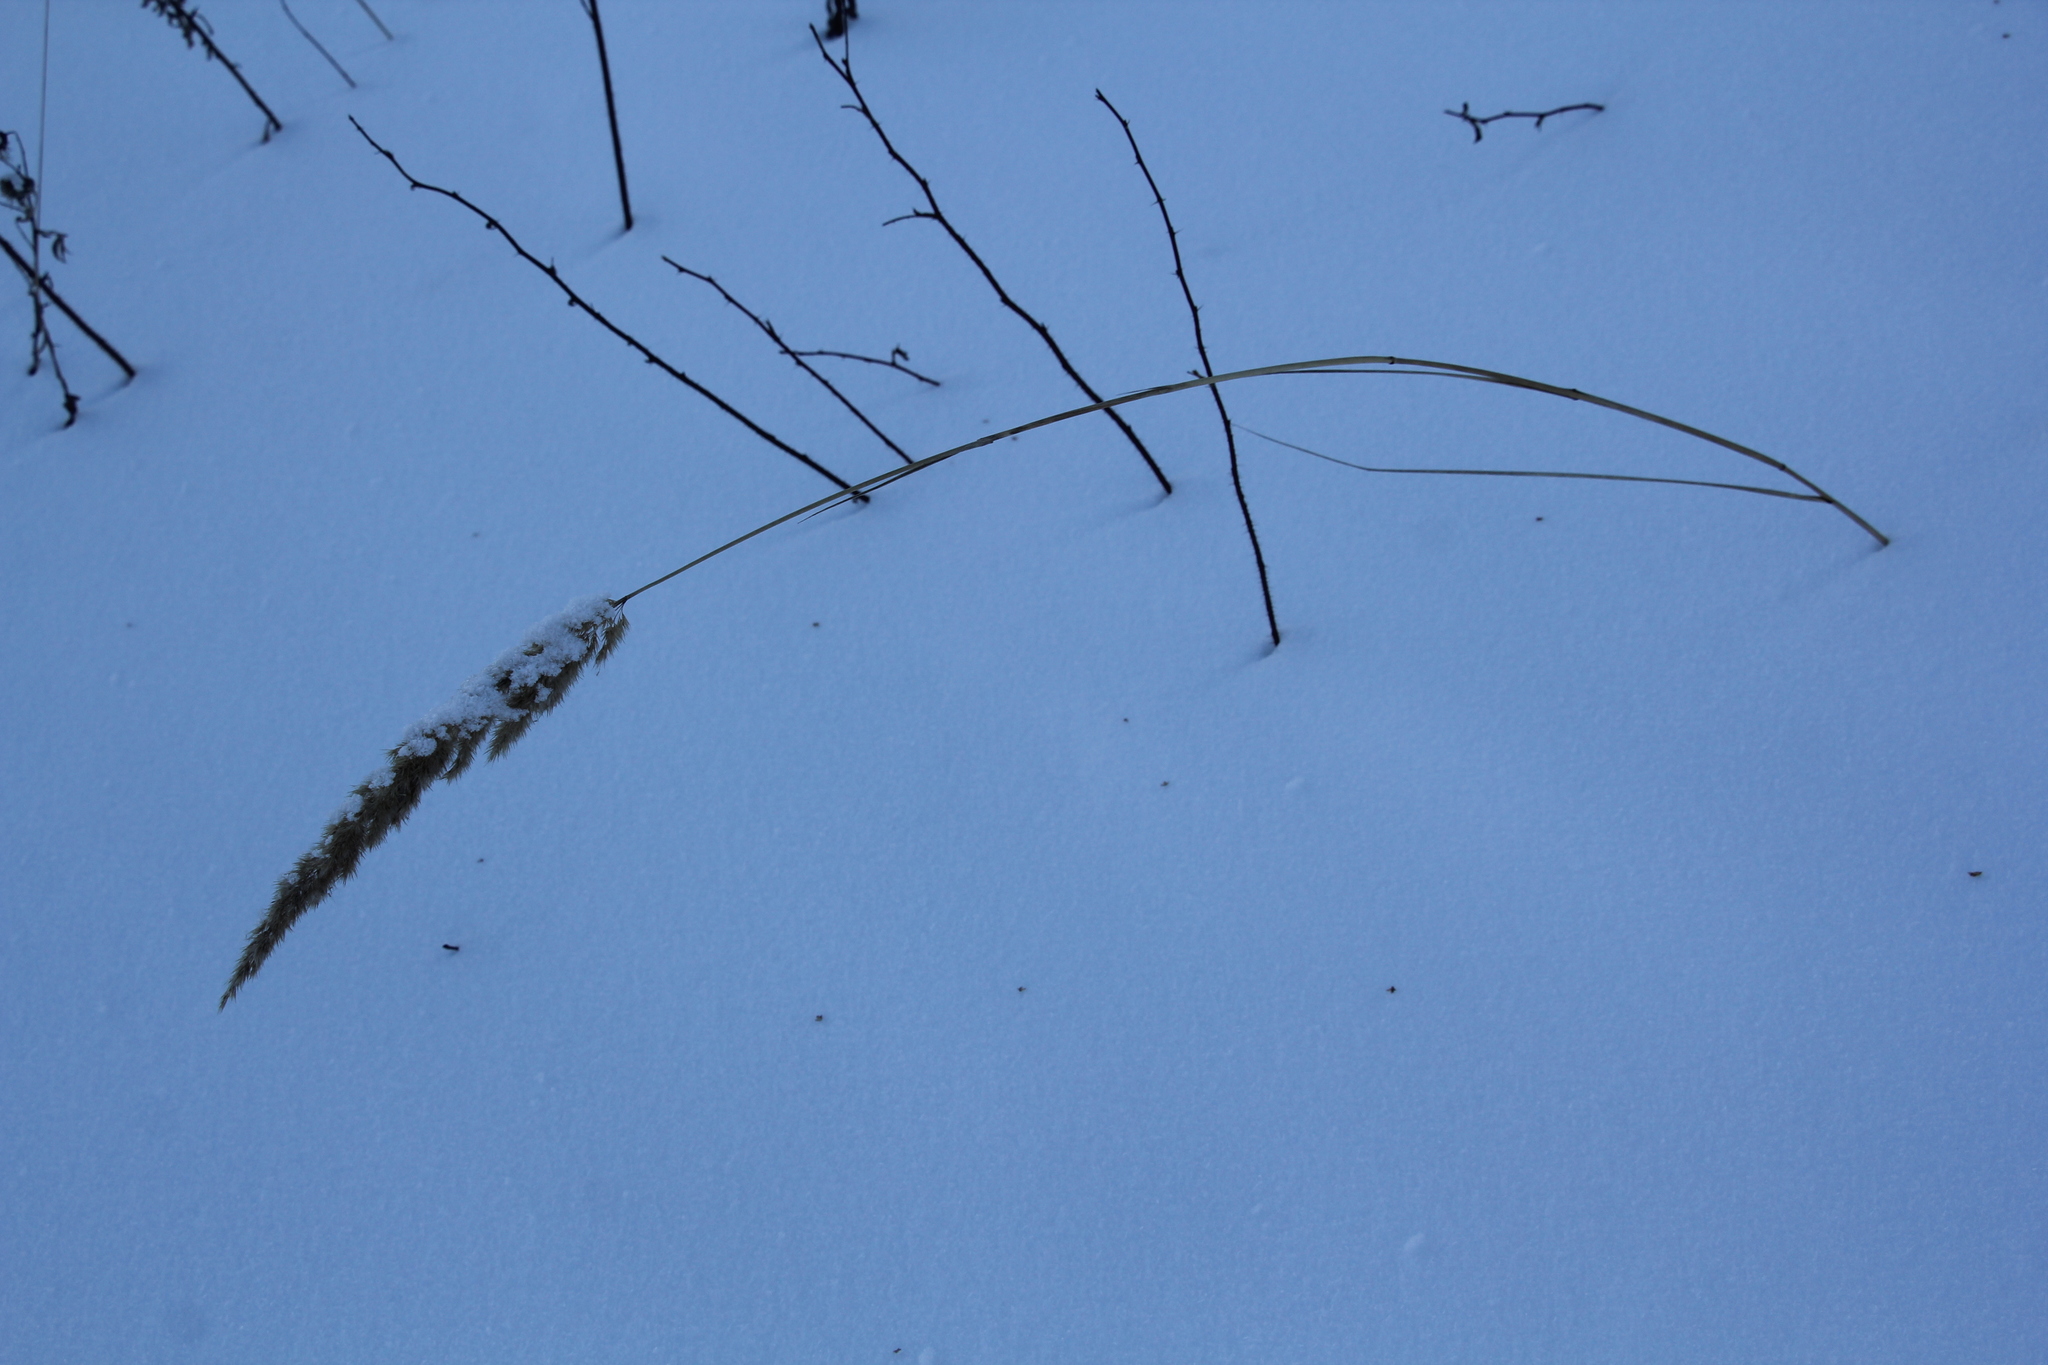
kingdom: Plantae
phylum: Tracheophyta
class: Liliopsida
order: Poales
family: Poaceae
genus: Calamagrostis
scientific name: Calamagrostis epigejos
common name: Wood small-reed
